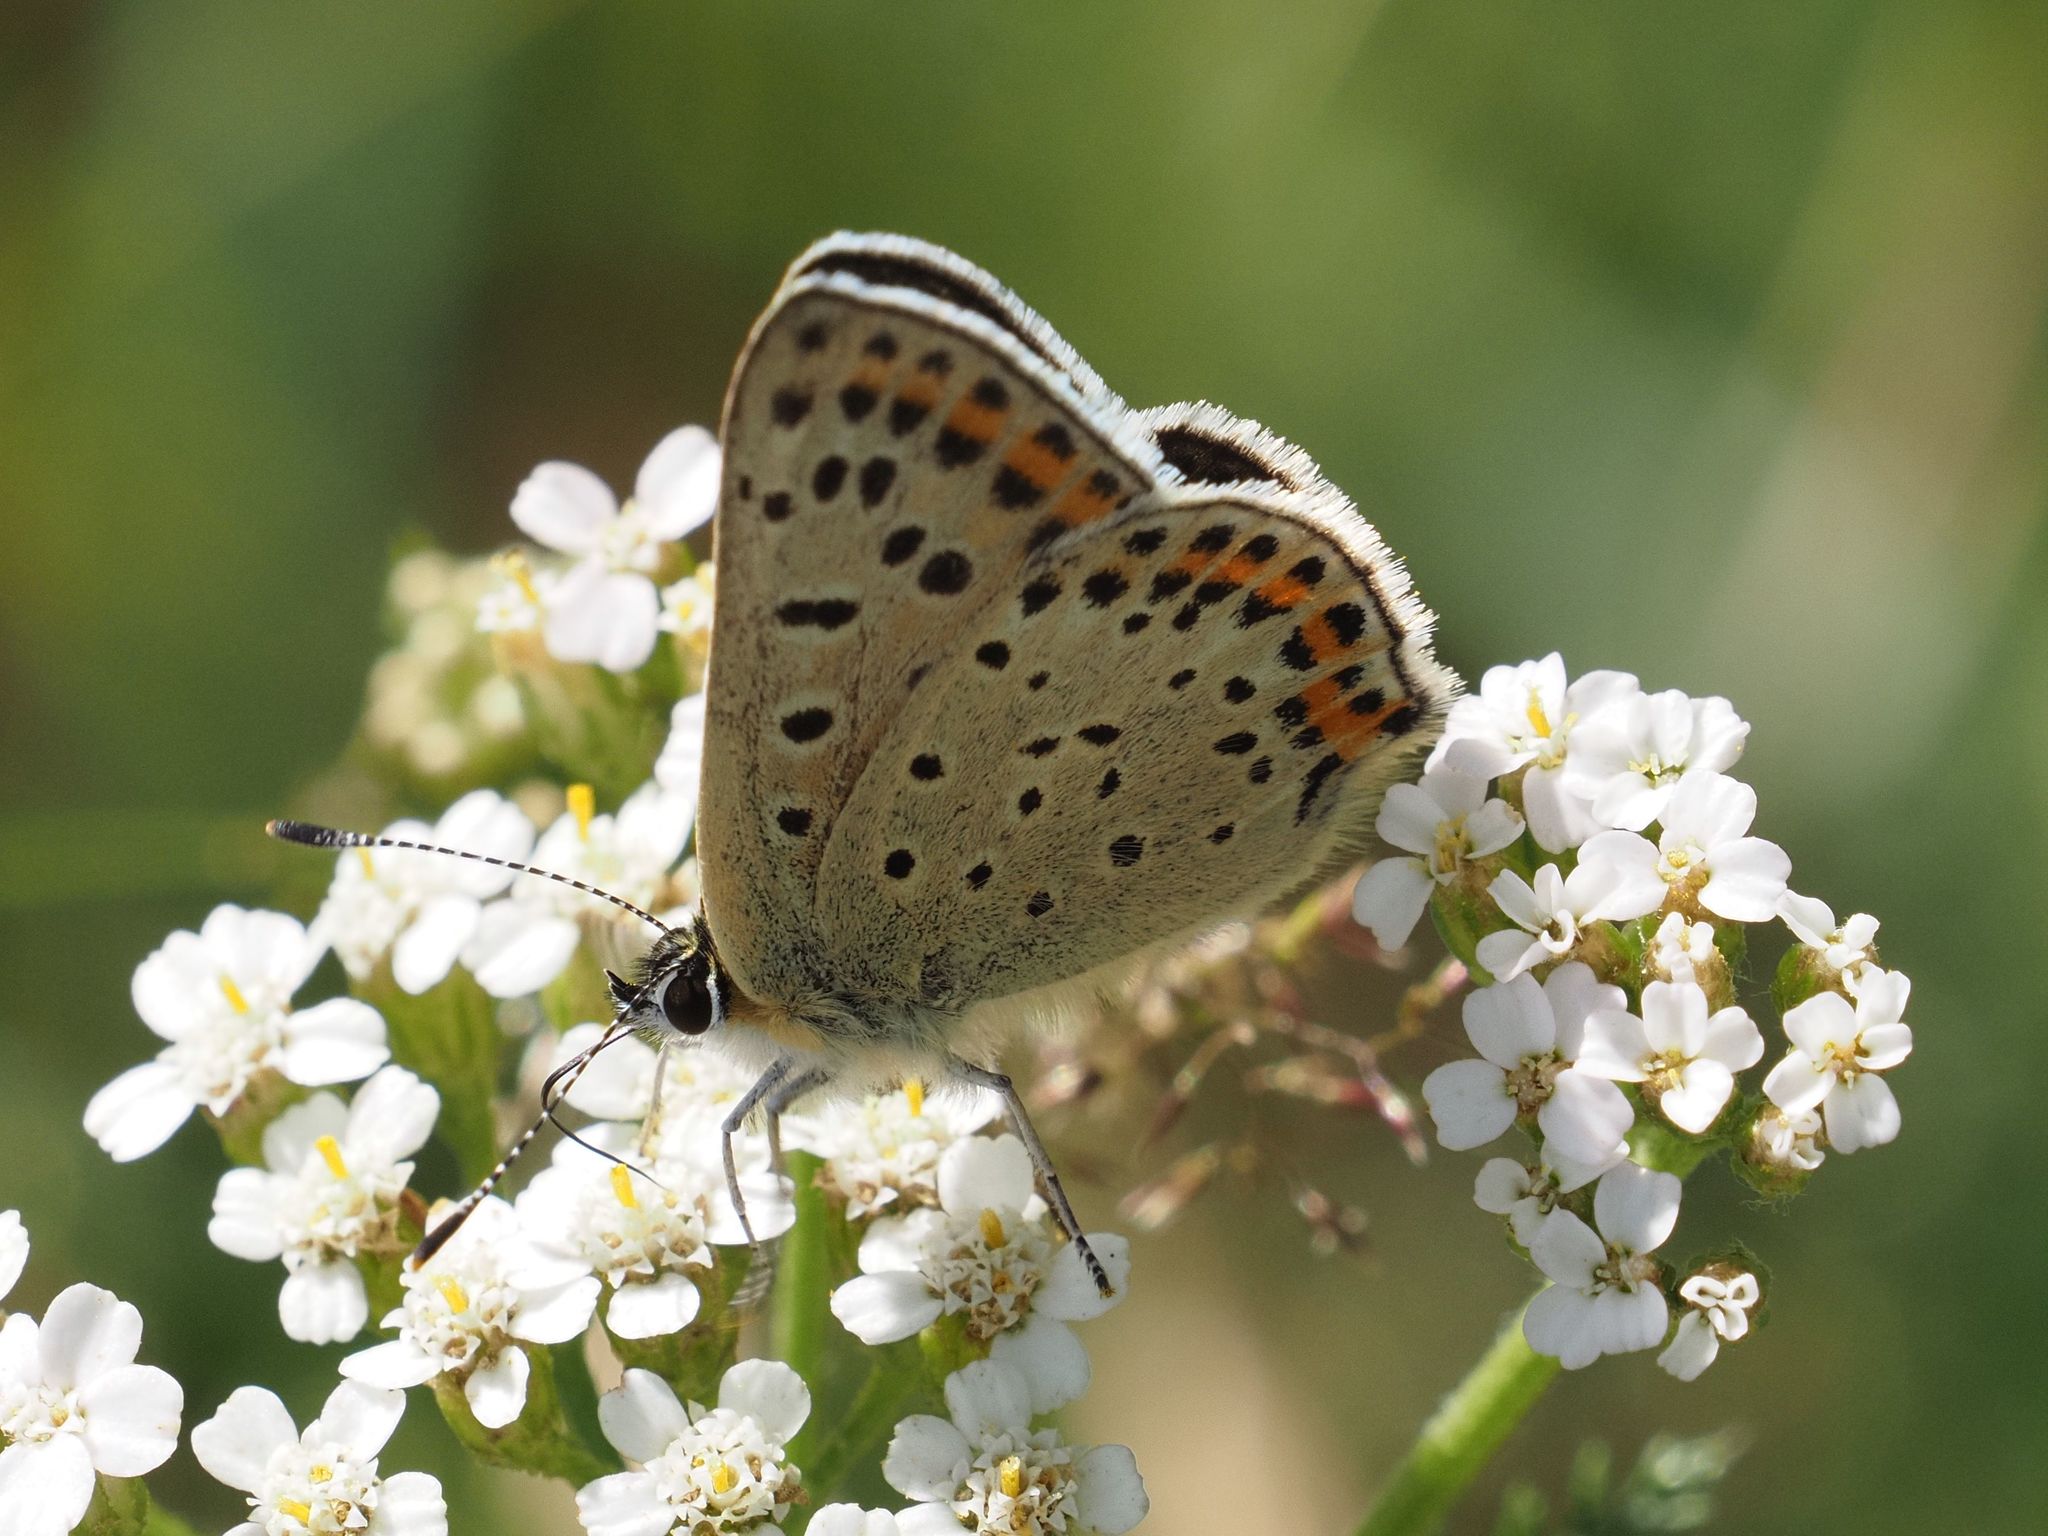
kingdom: Animalia
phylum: Arthropoda
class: Insecta
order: Lepidoptera
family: Lycaenidae
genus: Loweia
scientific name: Loweia tityrus
